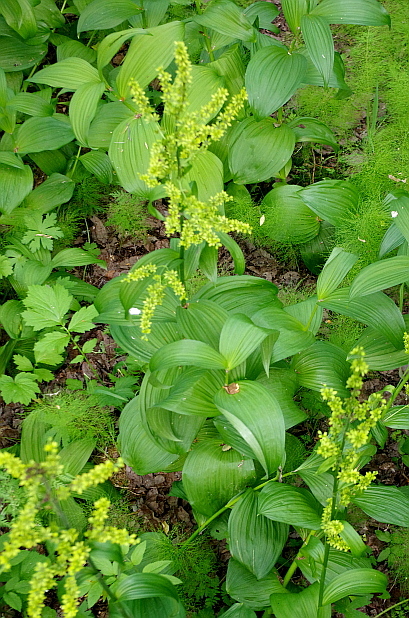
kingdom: Plantae
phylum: Tracheophyta
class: Liliopsida
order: Liliales
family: Melanthiaceae
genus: Veratrum
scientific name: Veratrum lobelianum
